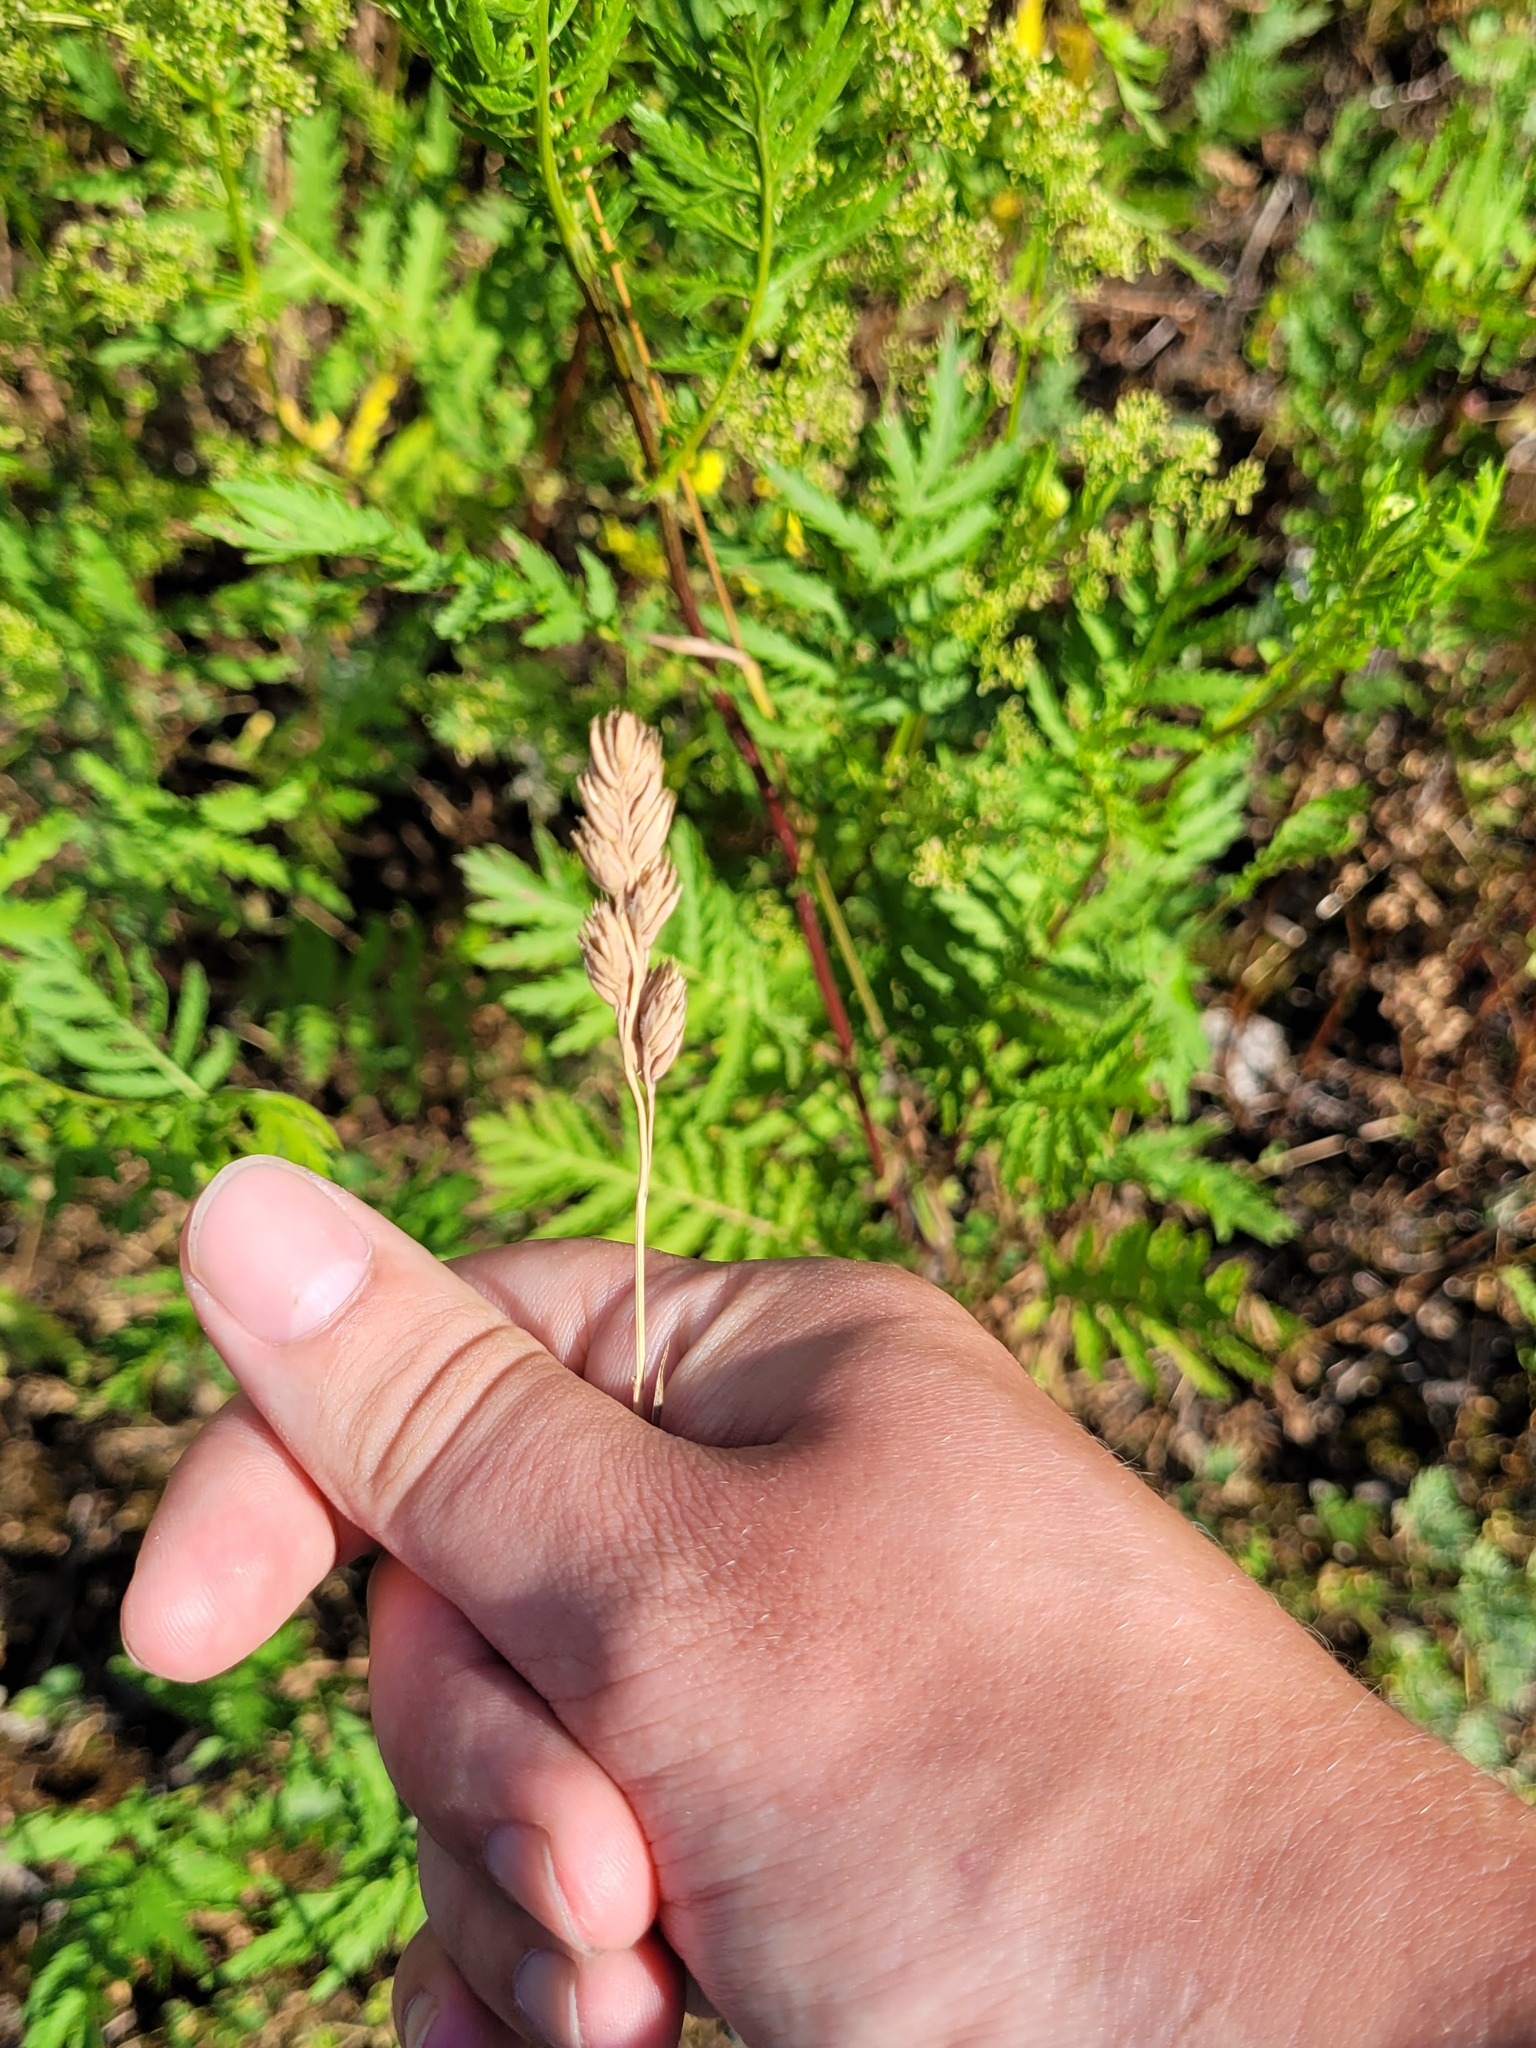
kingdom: Plantae
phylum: Tracheophyta
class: Liliopsida
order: Poales
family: Poaceae
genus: Dactylis
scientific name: Dactylis glomerata
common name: Orchardgrass
